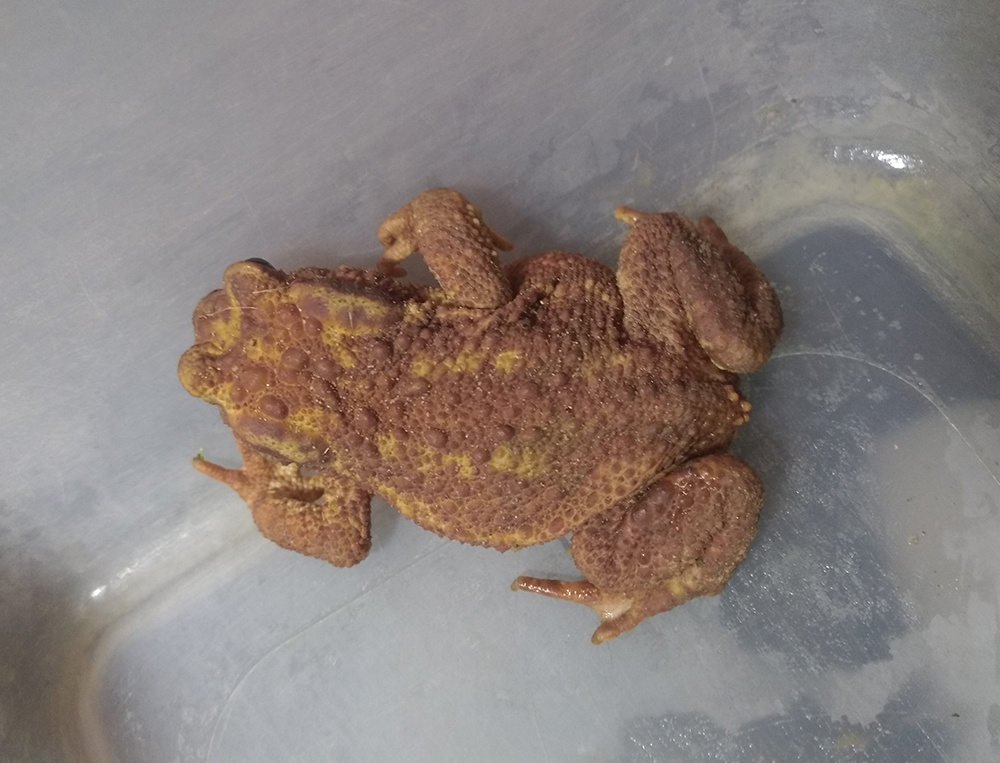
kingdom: Animalia
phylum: Chordata
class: Amphibia
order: Anura
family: Bufonidae
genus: Bufo
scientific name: Bufo bufo
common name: Common toad
